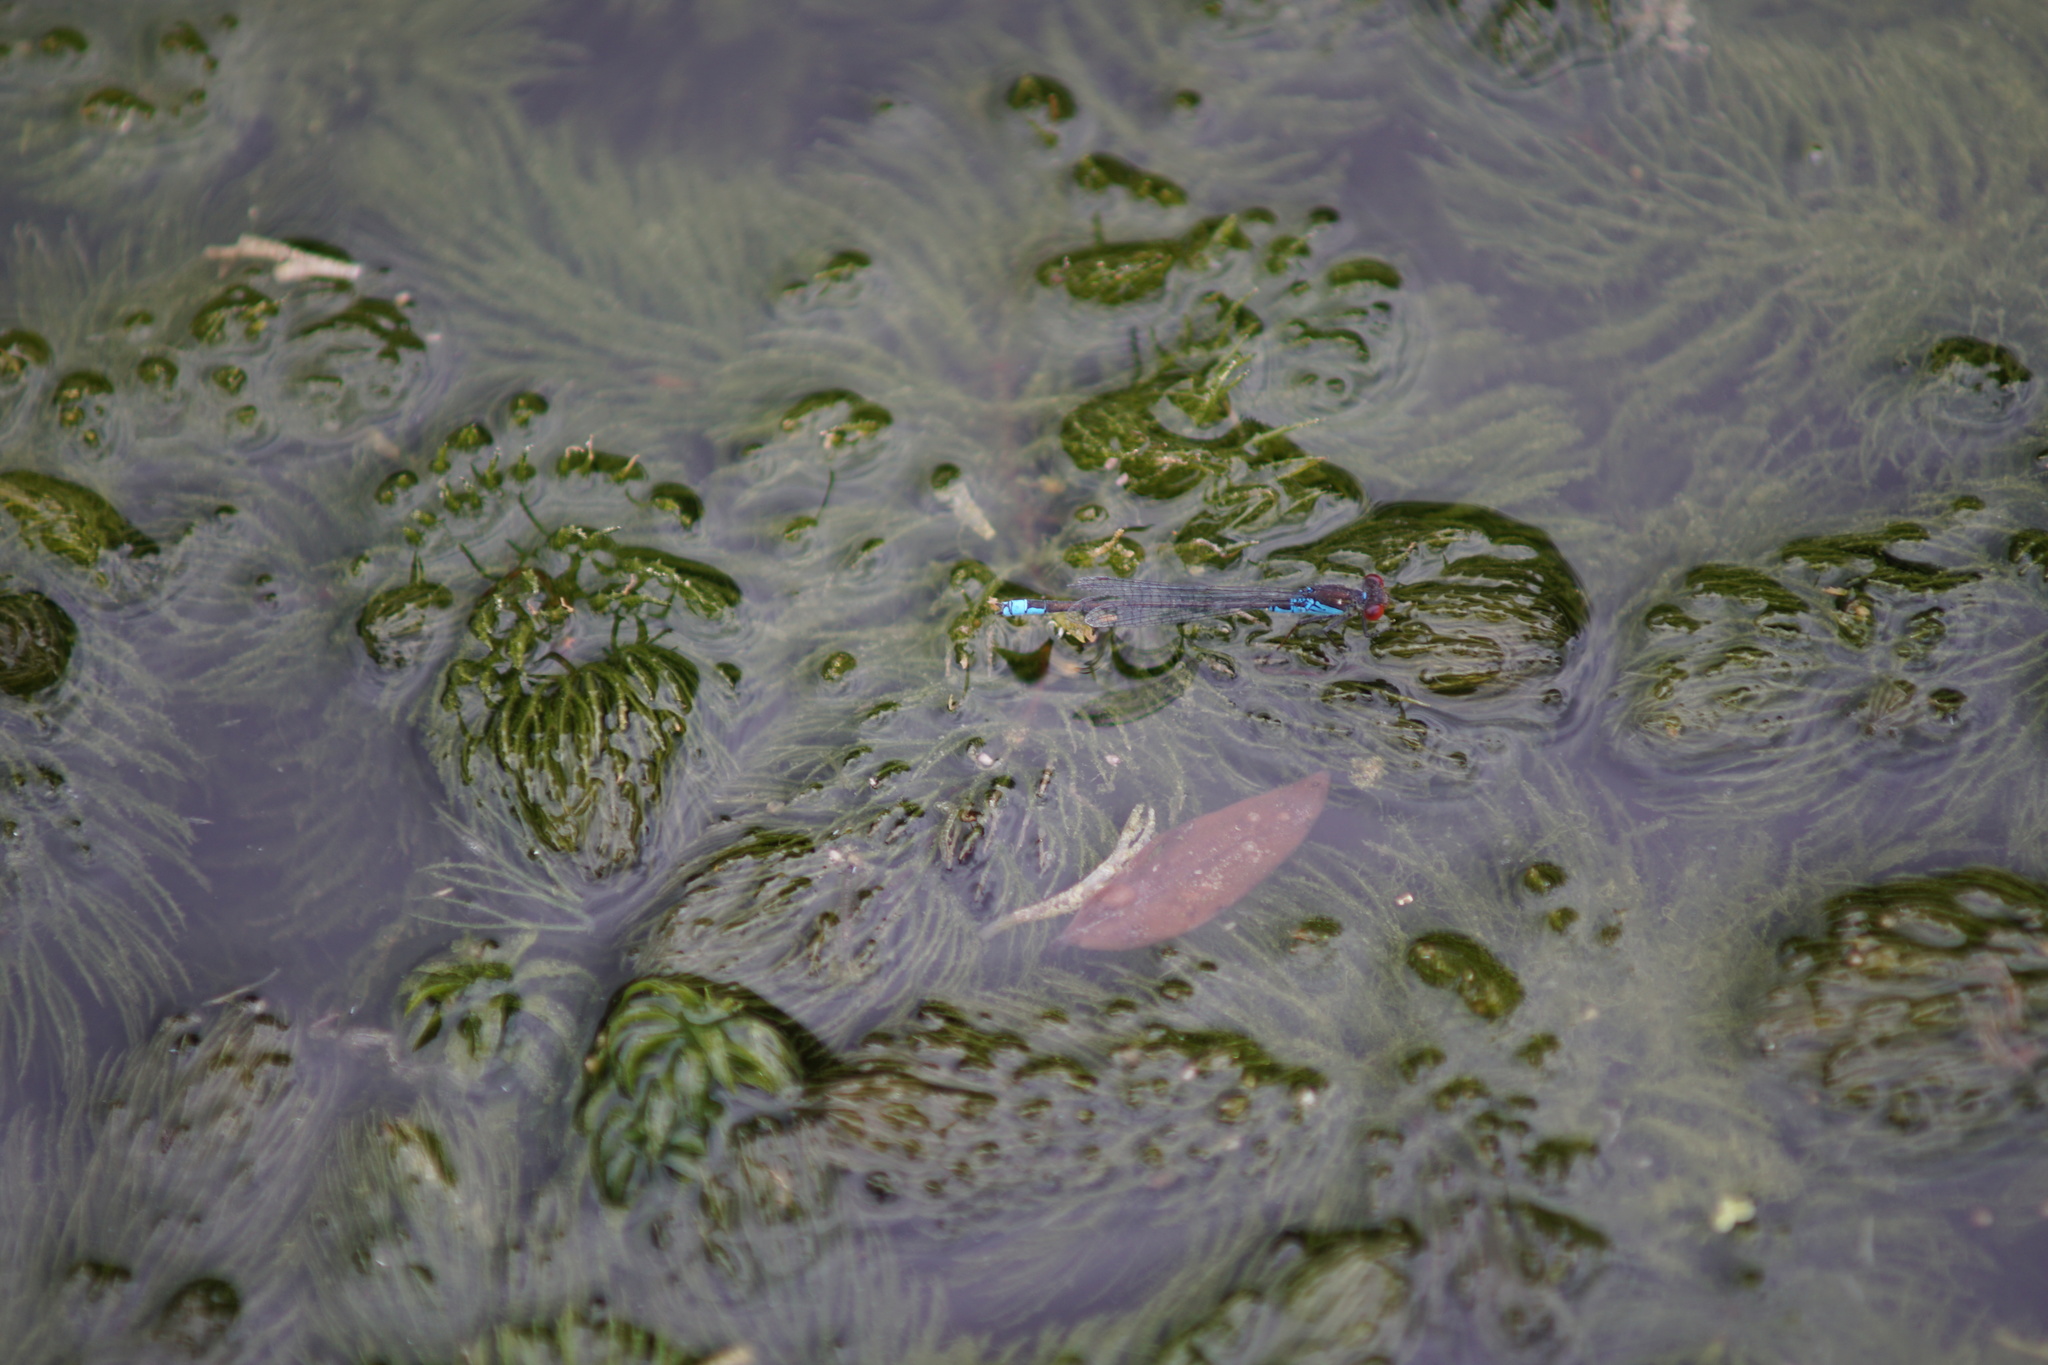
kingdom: Animalia
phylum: Arthropoda
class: Insecta
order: Odonata
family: Coenagrionidae
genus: Erythromma
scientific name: Erythromma viridulum
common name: Small red-eyed damselfly
